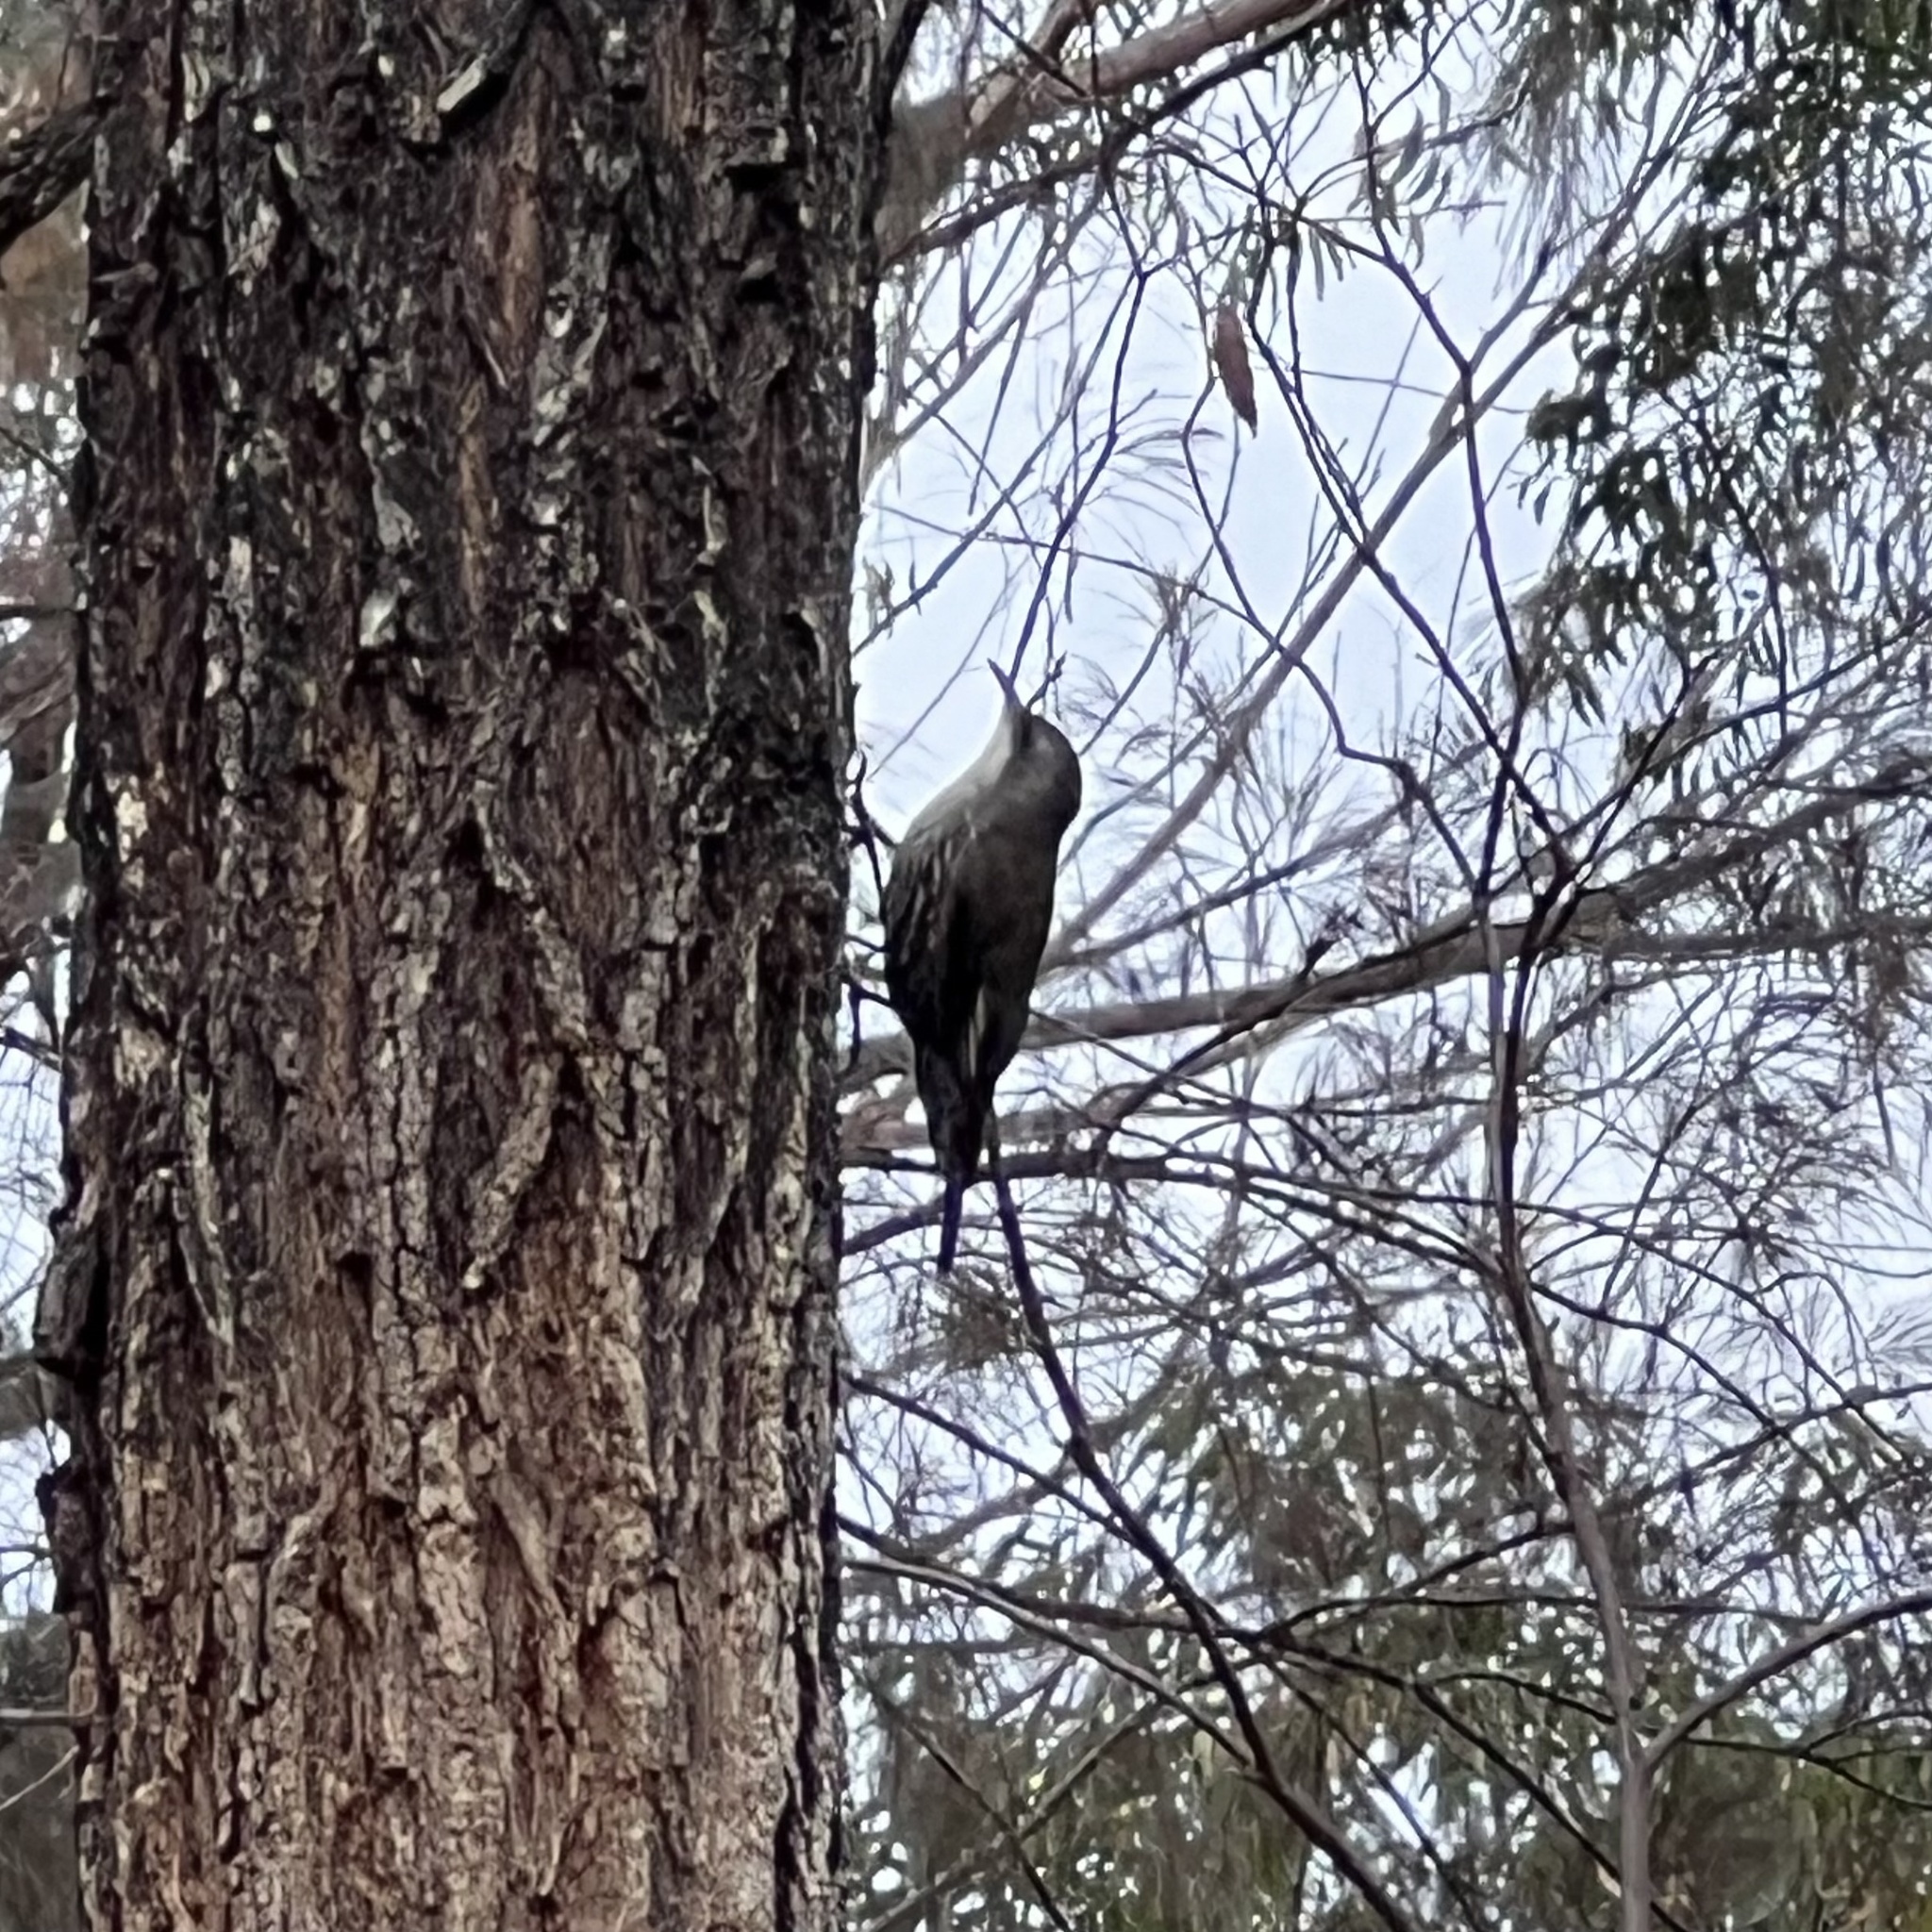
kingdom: Animalia
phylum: Chordata
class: Aves
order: Passeriformes
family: Climacteridae
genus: Cormobates
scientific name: Cormobates leucophaea
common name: White-throated treecreeper
